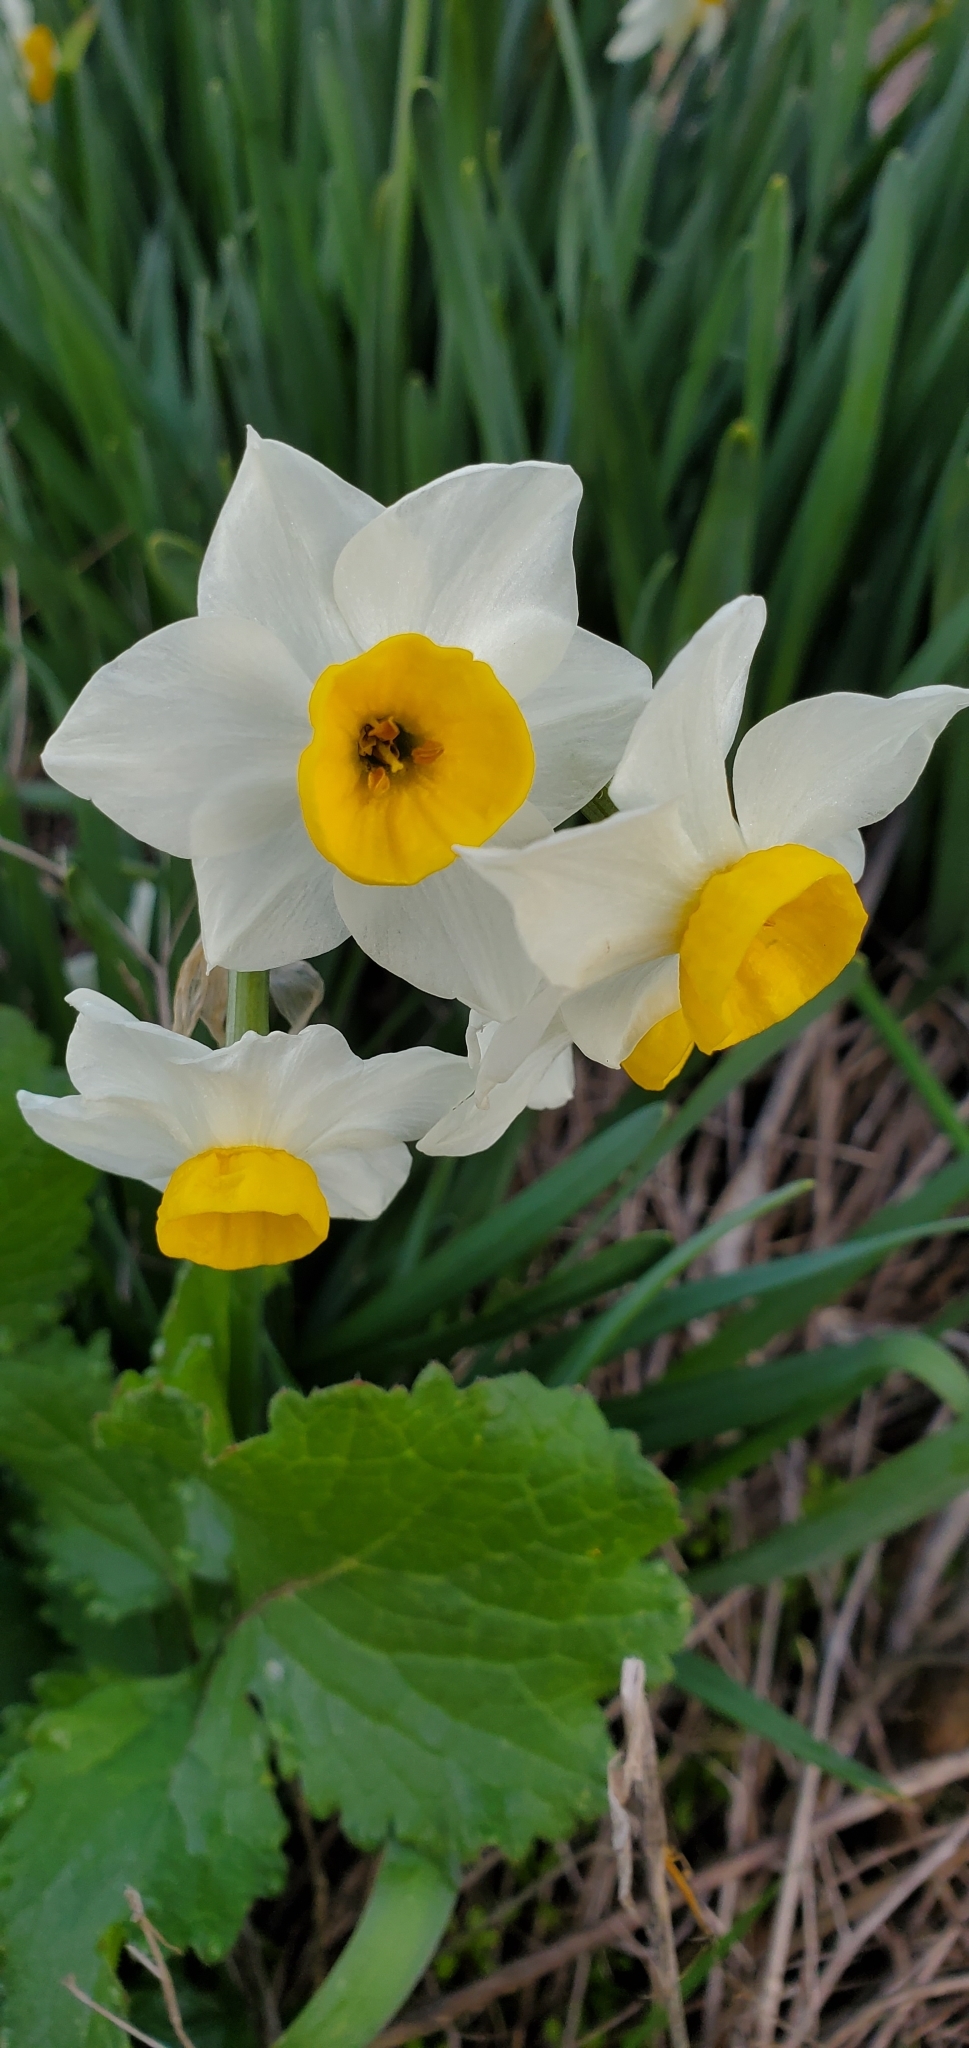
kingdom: Plantae
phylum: Tracheophyta
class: Liliopsida
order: Asparagales
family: Amaryllidaceae
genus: Narcissus
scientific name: Narcissus tazetta
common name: Bunch-flowered daffodil
